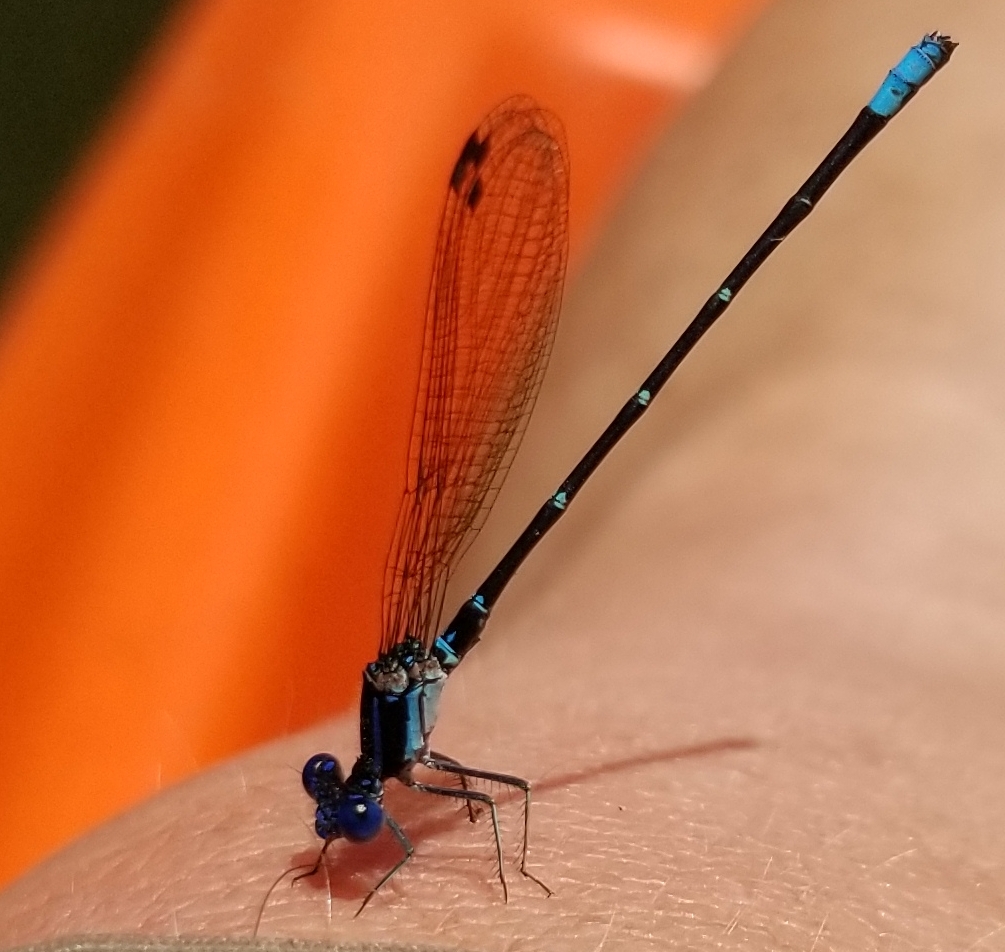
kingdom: Animalia
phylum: Arthropoda
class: Insecta
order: Odonata
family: Coenagrionidae
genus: Argia
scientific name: Argia sedula
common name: Blue-ringed dancer
